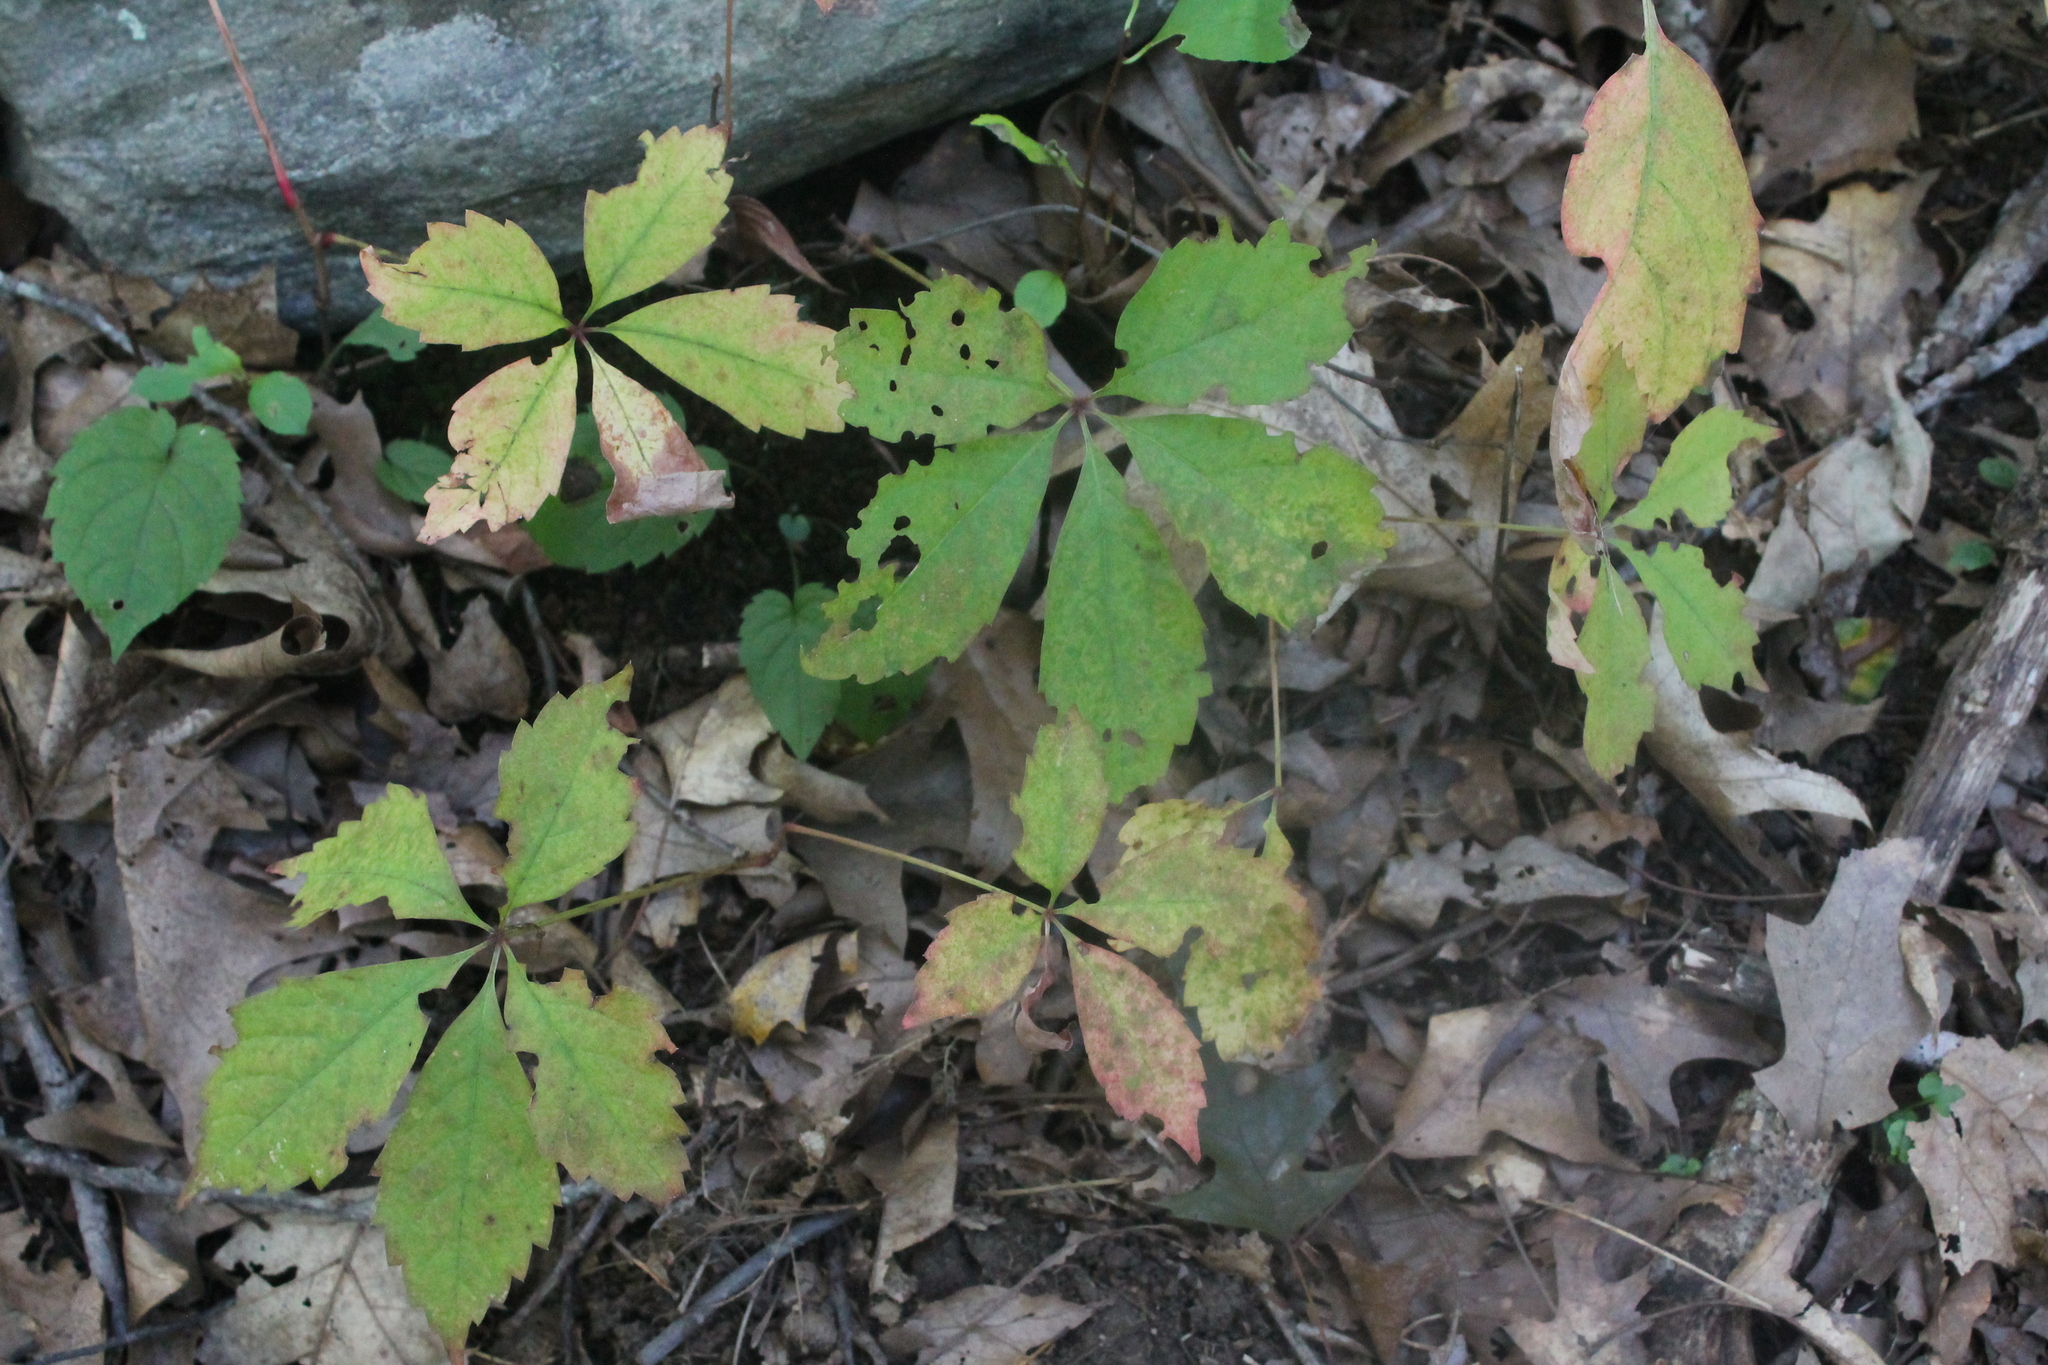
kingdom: Plantae
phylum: Tracheophyta
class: Magnoliopsida
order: Vitales
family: Vitaceae
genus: Parthenocissus
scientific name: Parthenocissus quinquefolia
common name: Virginia-creeper
